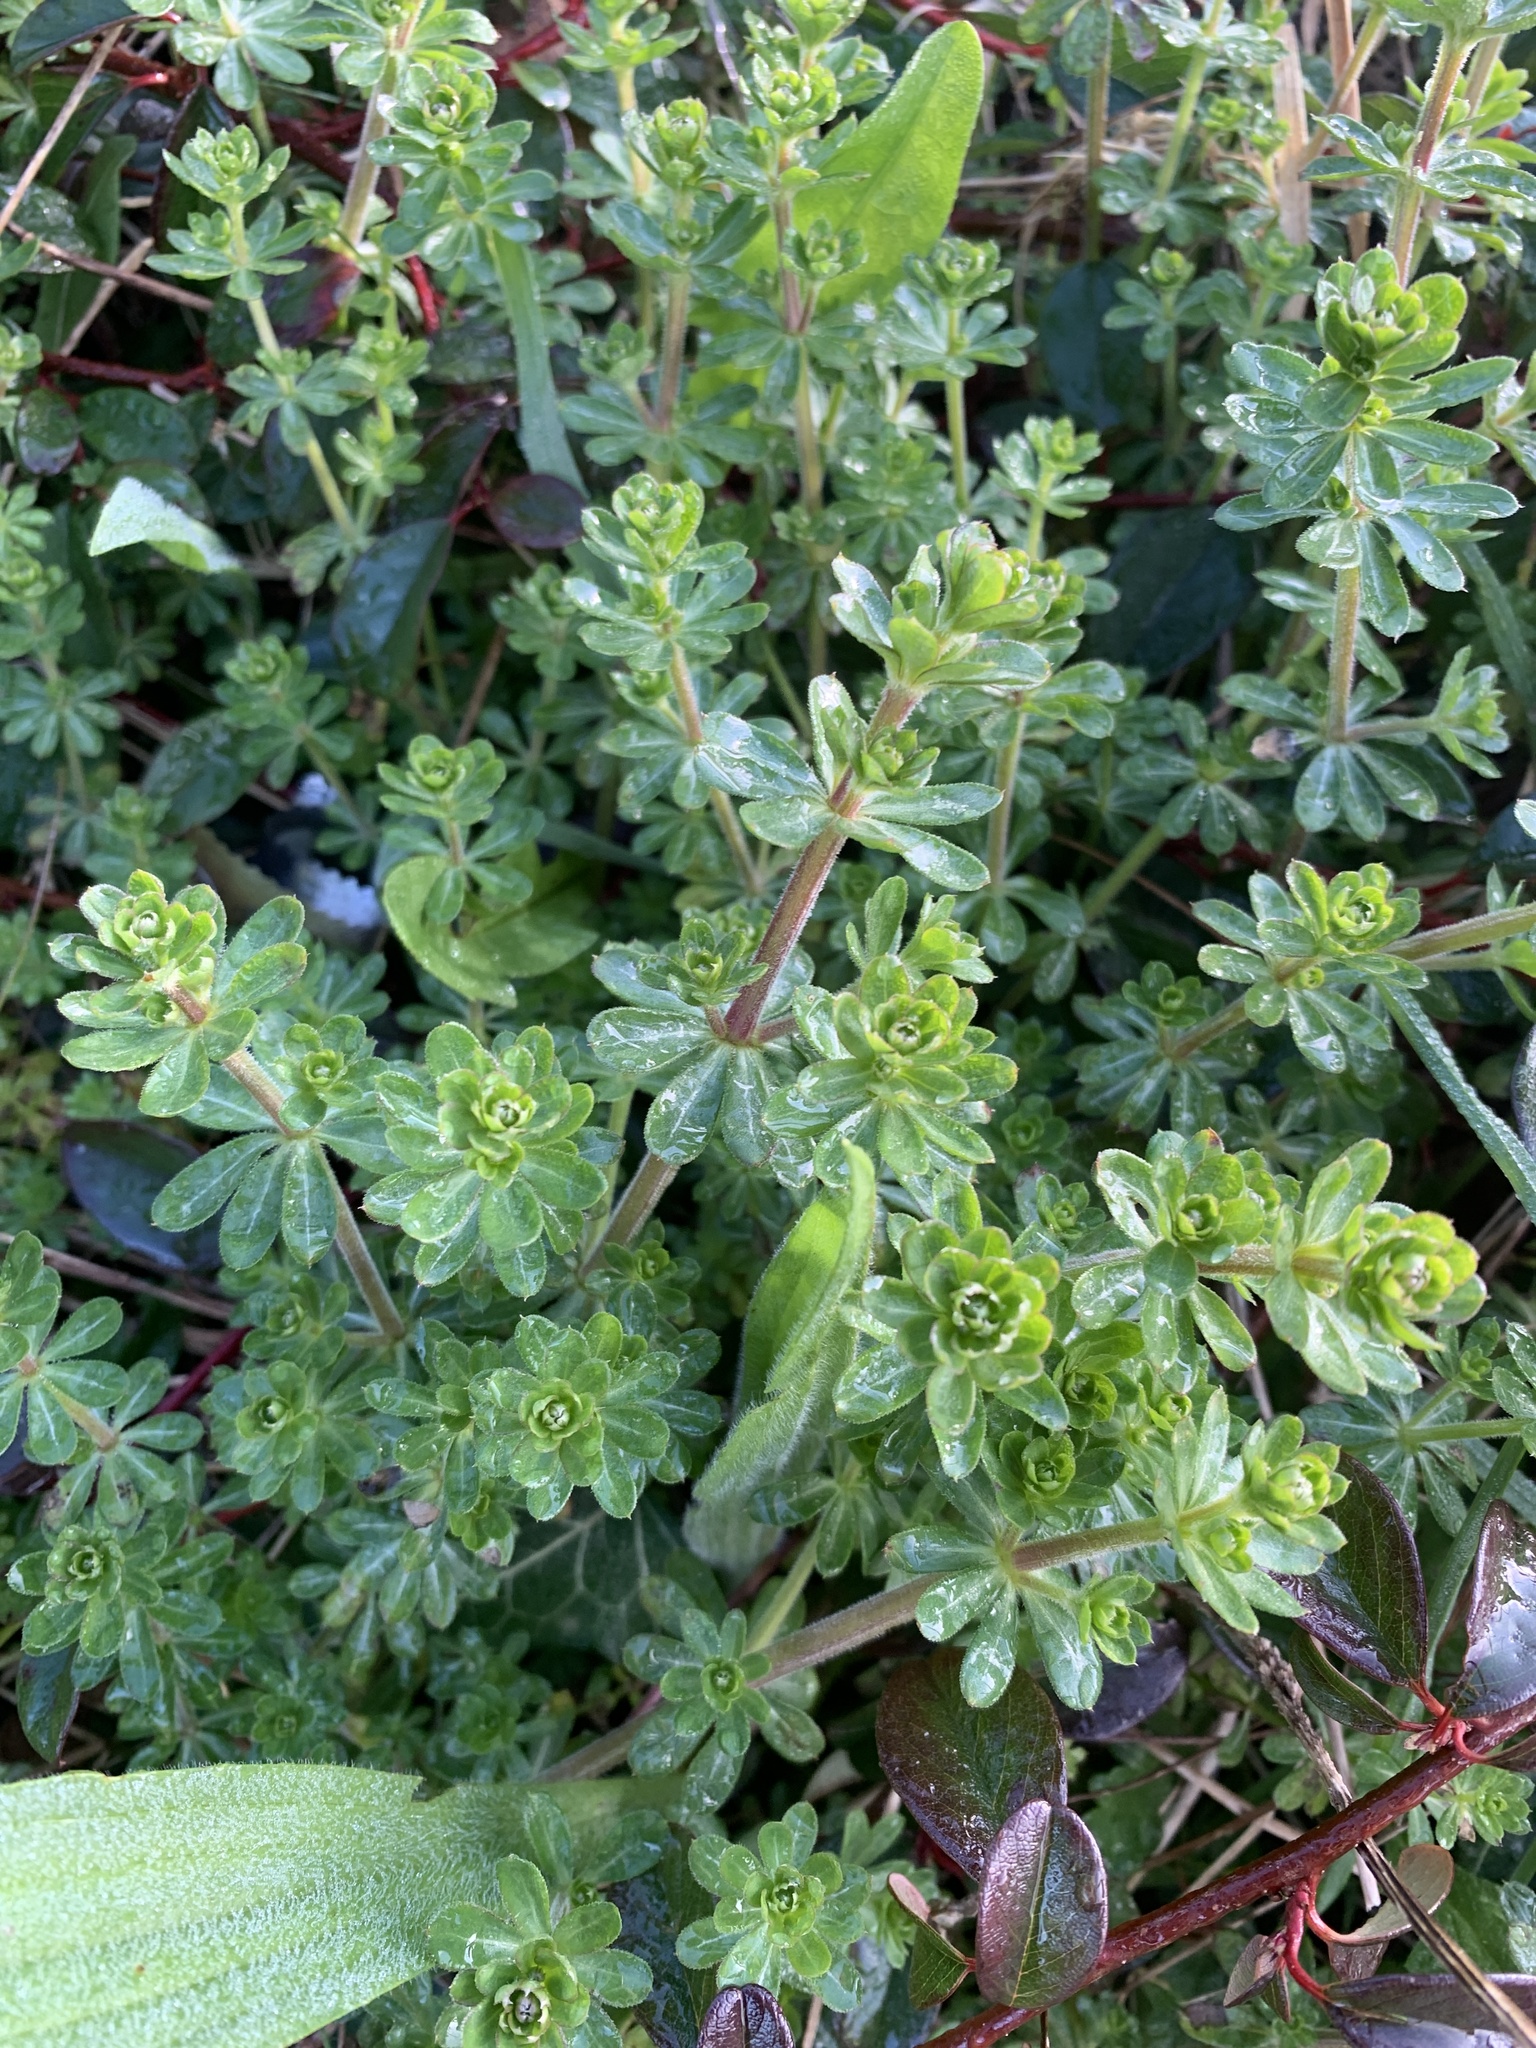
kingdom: Plantae
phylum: Tracheophyta
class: Magnoliopsida
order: Gentianales
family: Rubiaceae
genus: Galium
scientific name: Galium mollugo
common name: Hedge bedstraw
